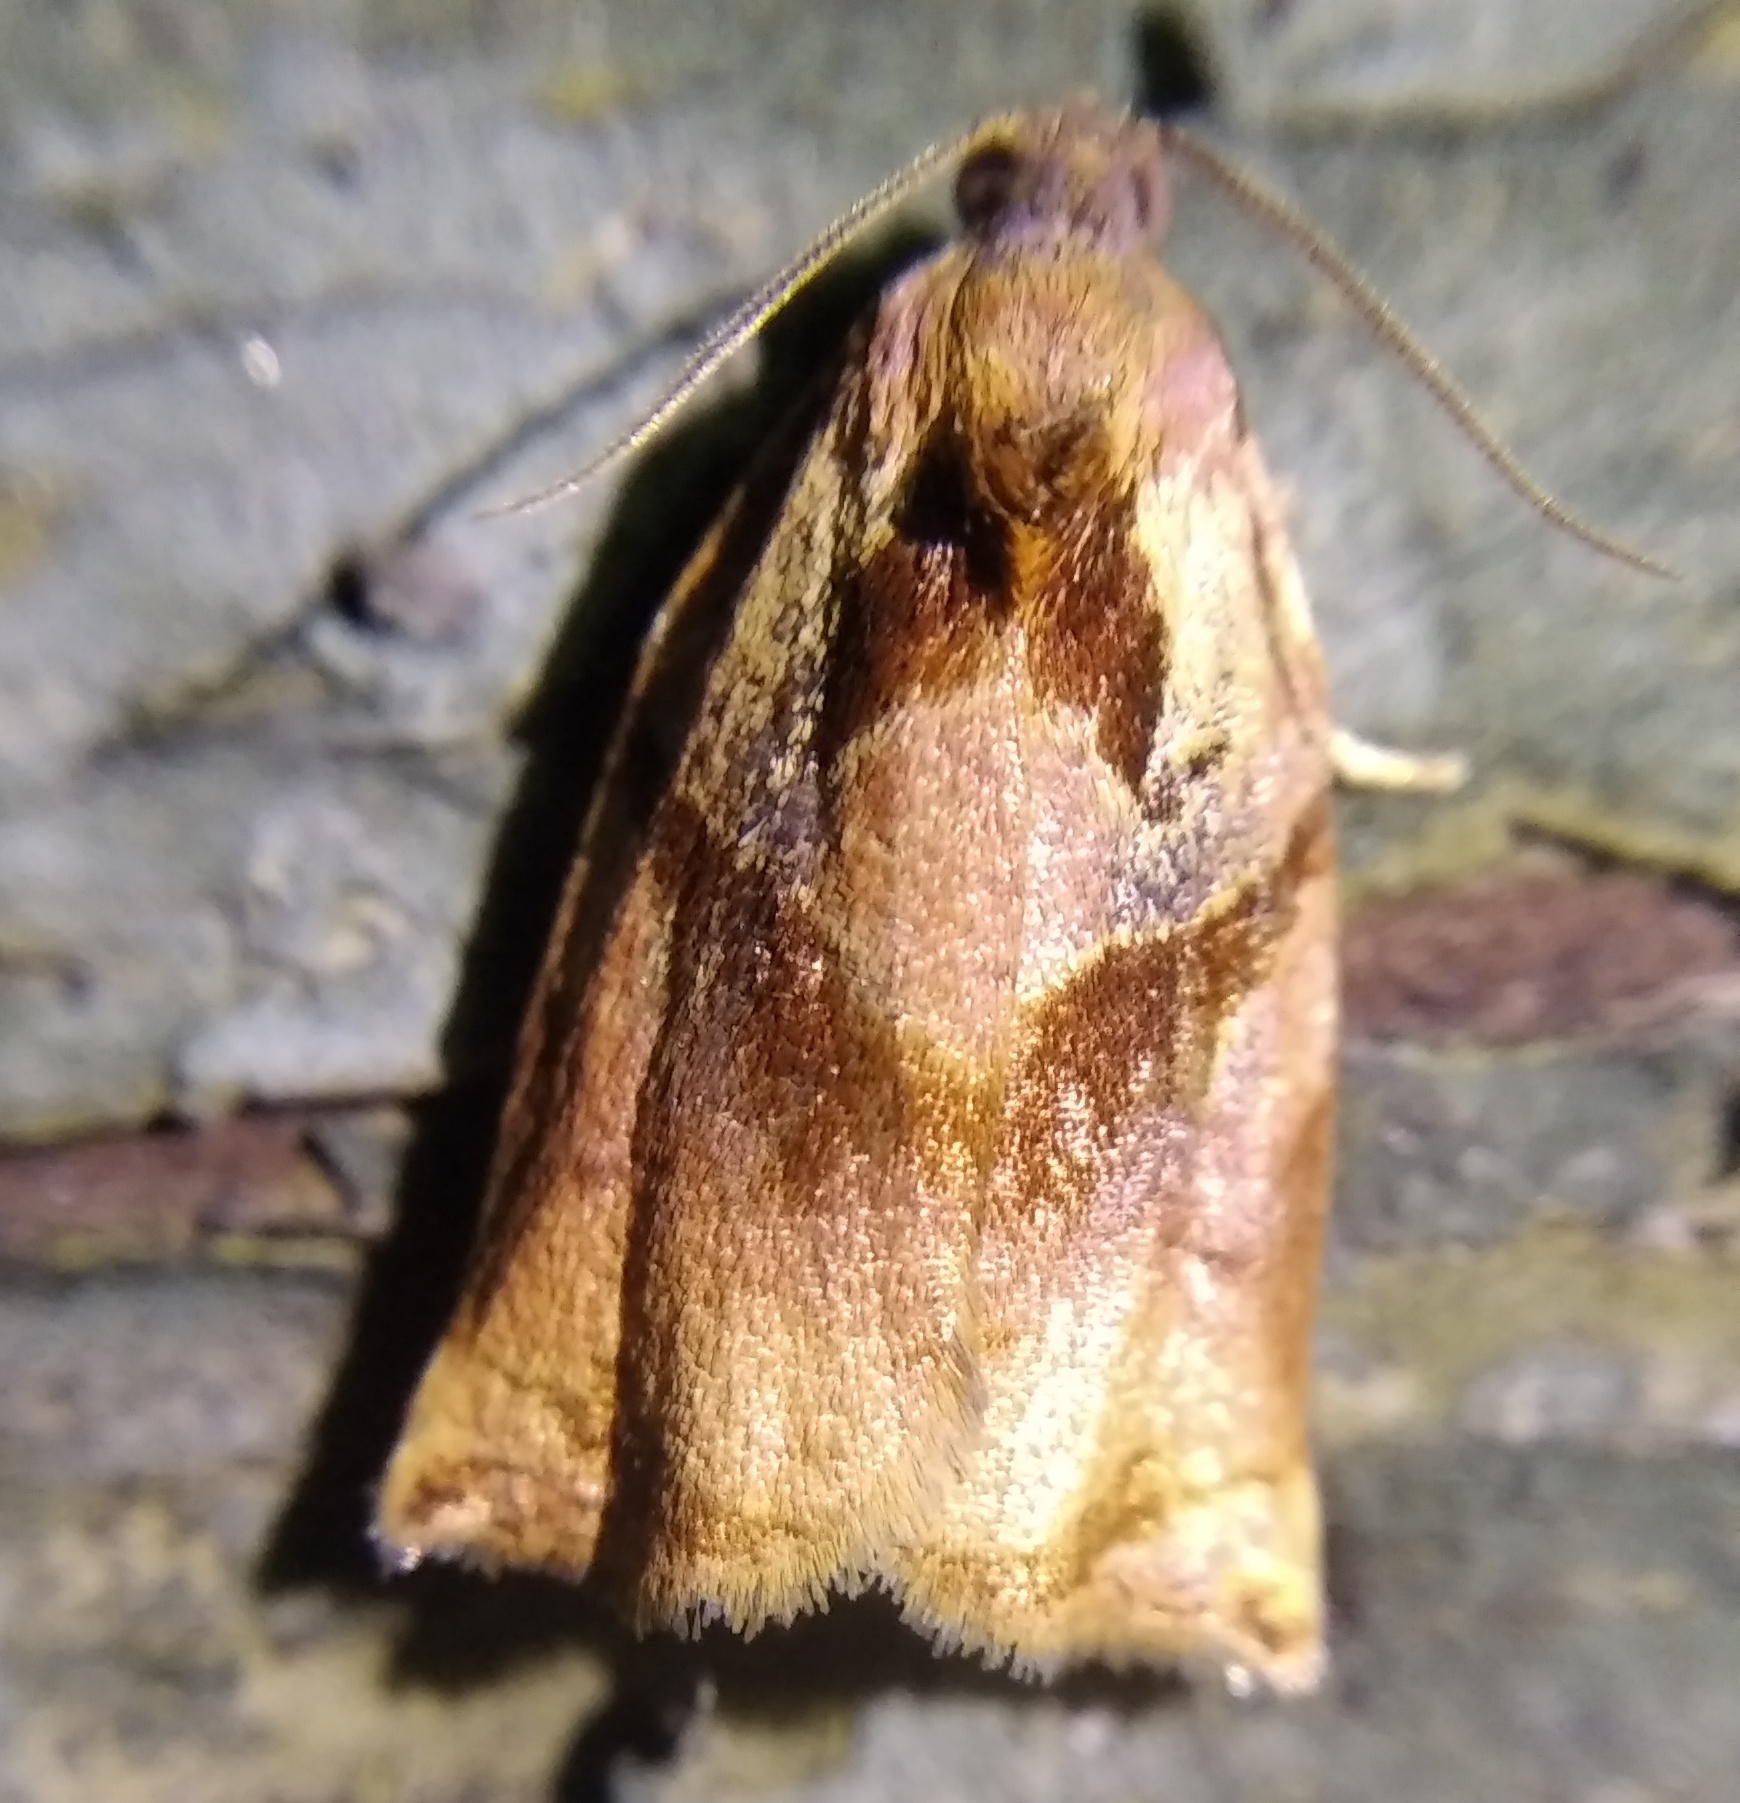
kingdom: Animalia
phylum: Arthropoda
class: Insecta
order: Lepidoptera
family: Tortricidae
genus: Archips
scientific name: Archips podana
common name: Large fruit-tree tortrix
